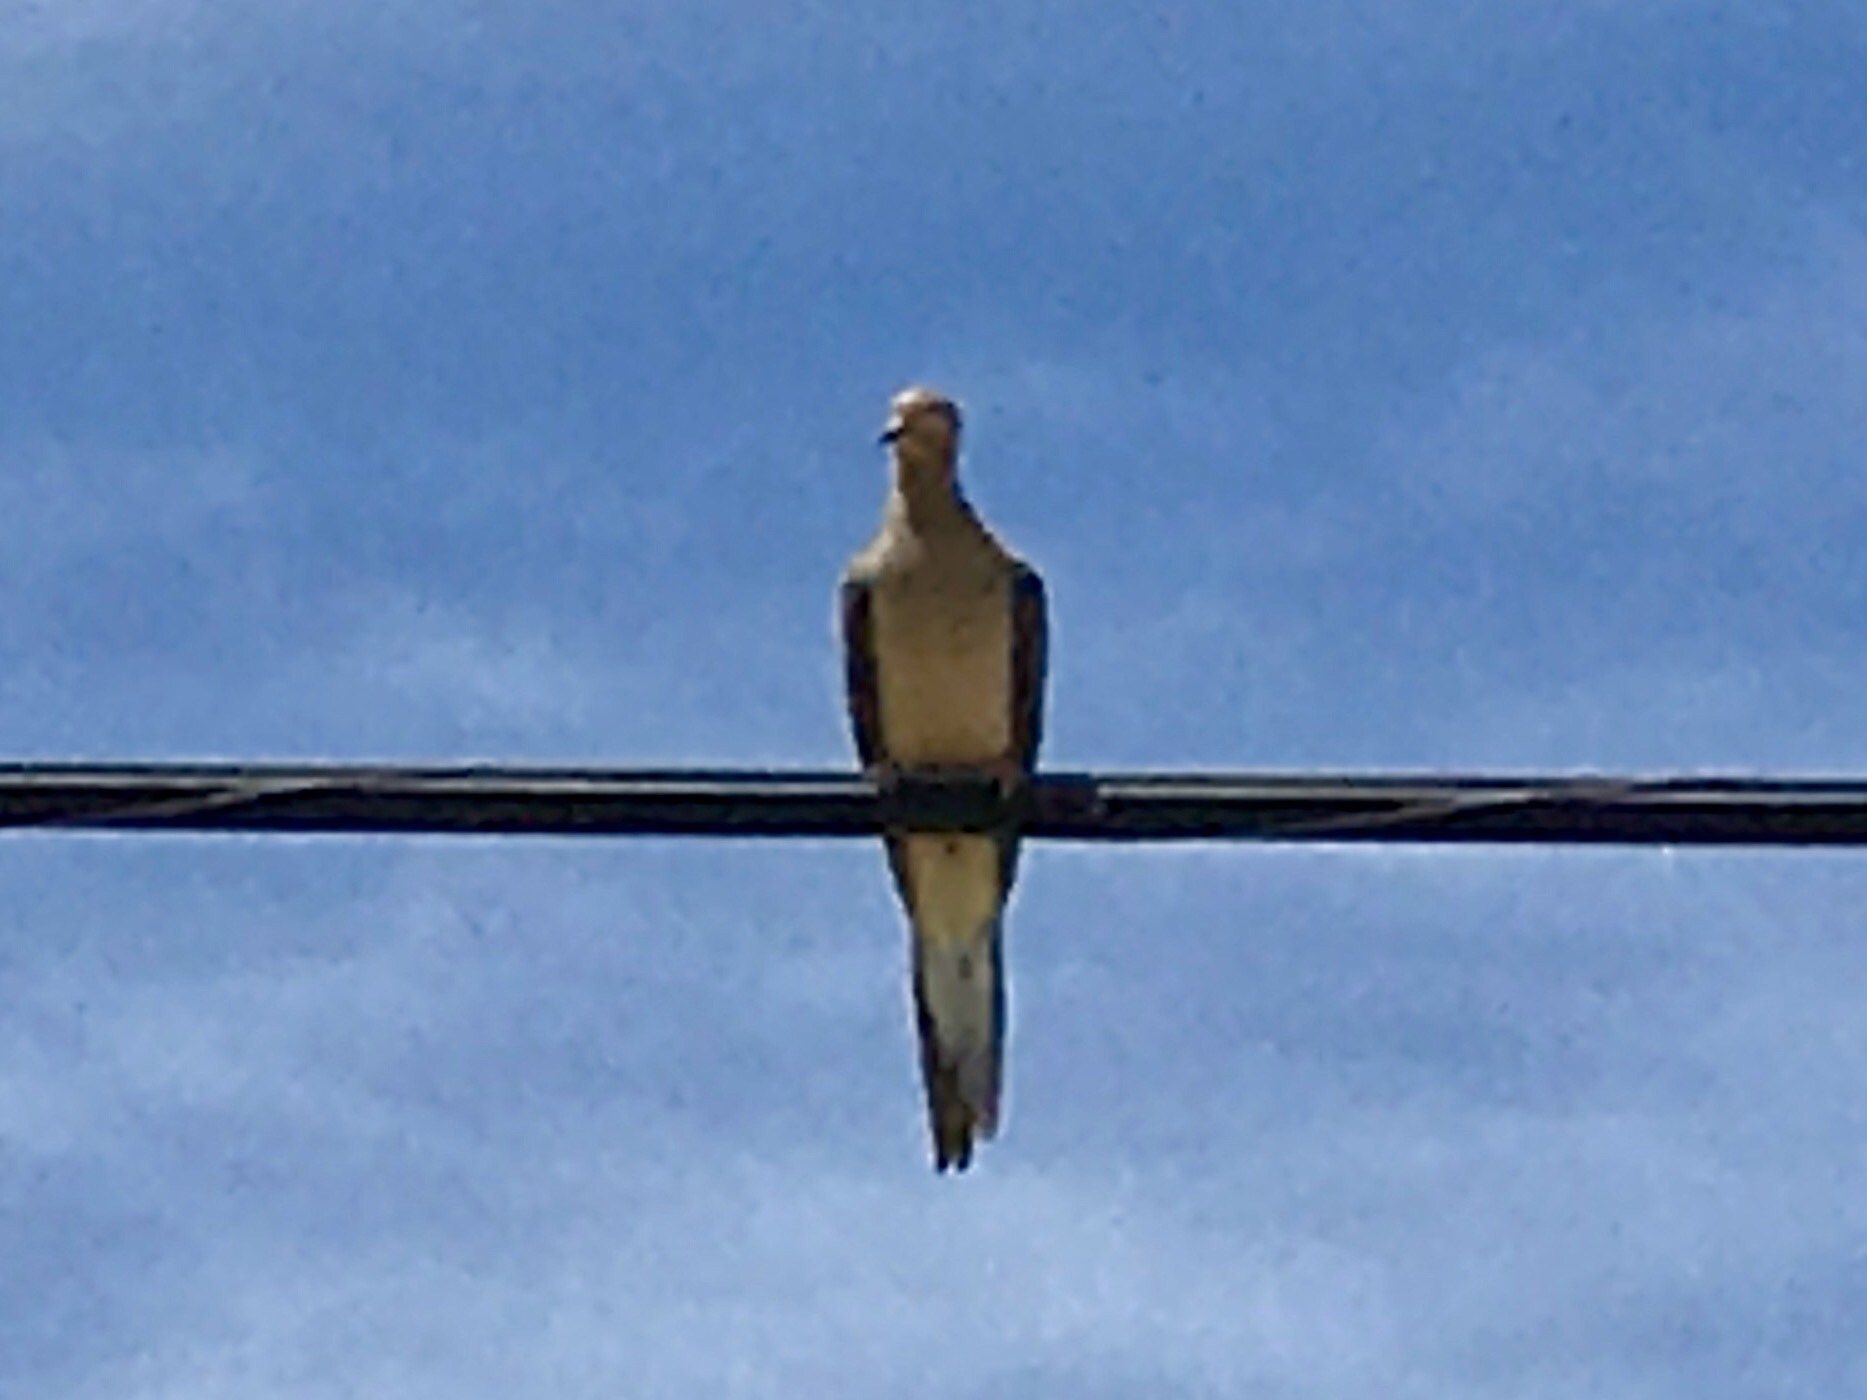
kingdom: Animalia
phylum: Chordata
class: Aves
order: Columbiformes
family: Columbidae
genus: Zenaida
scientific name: Zenaida macroura
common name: Mourning dove
